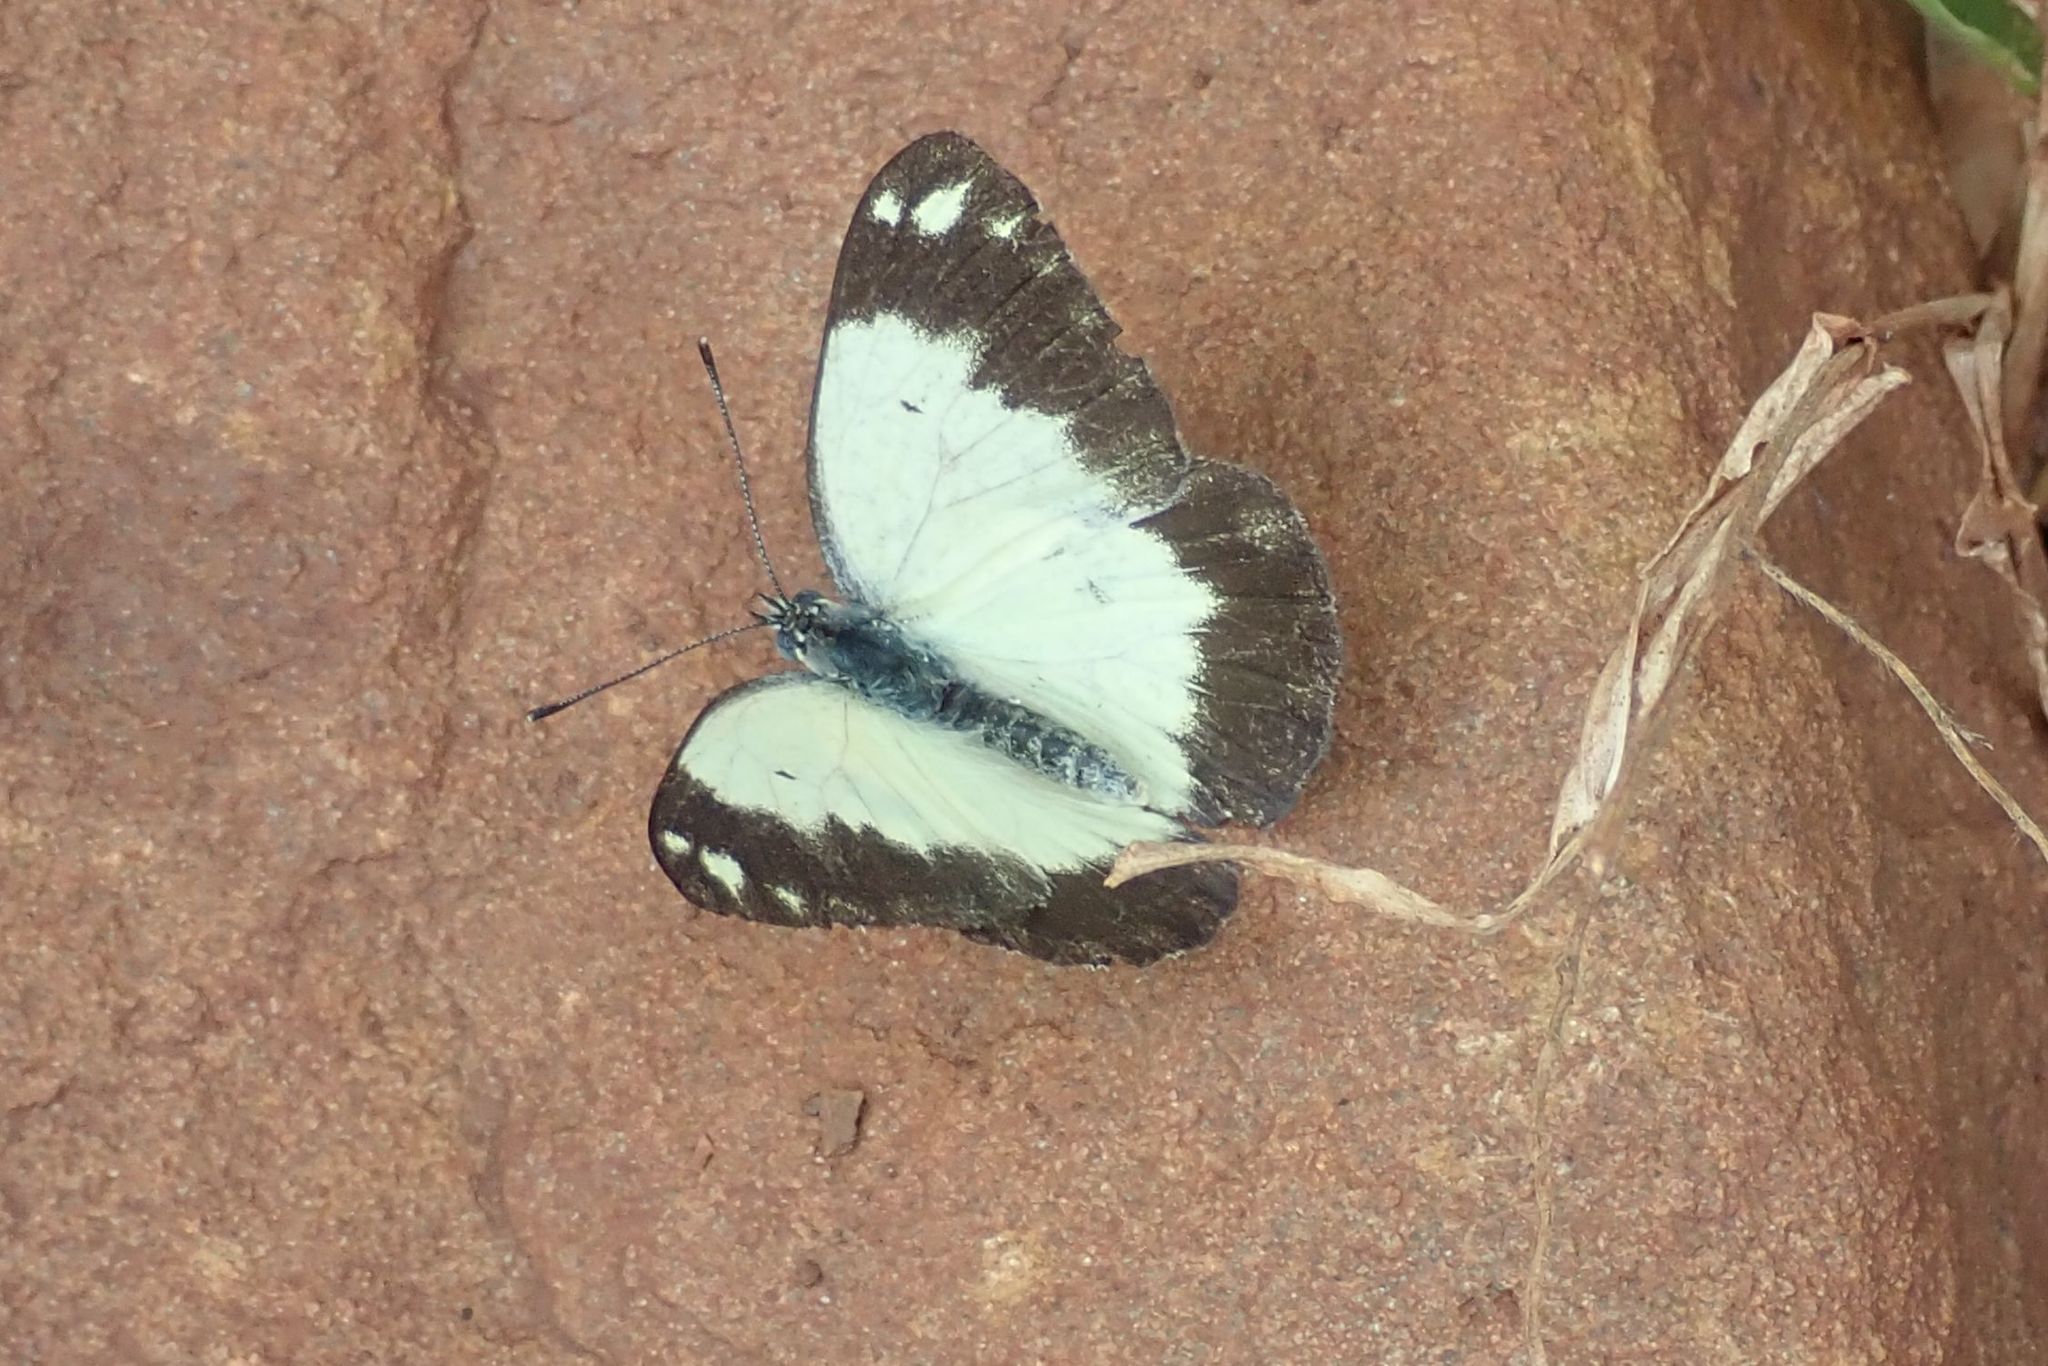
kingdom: Animalia
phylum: Arthropoda
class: Insecta
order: Lepidoptera
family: Pieridae
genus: Belenois
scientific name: Belenois creona
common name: African caper white
